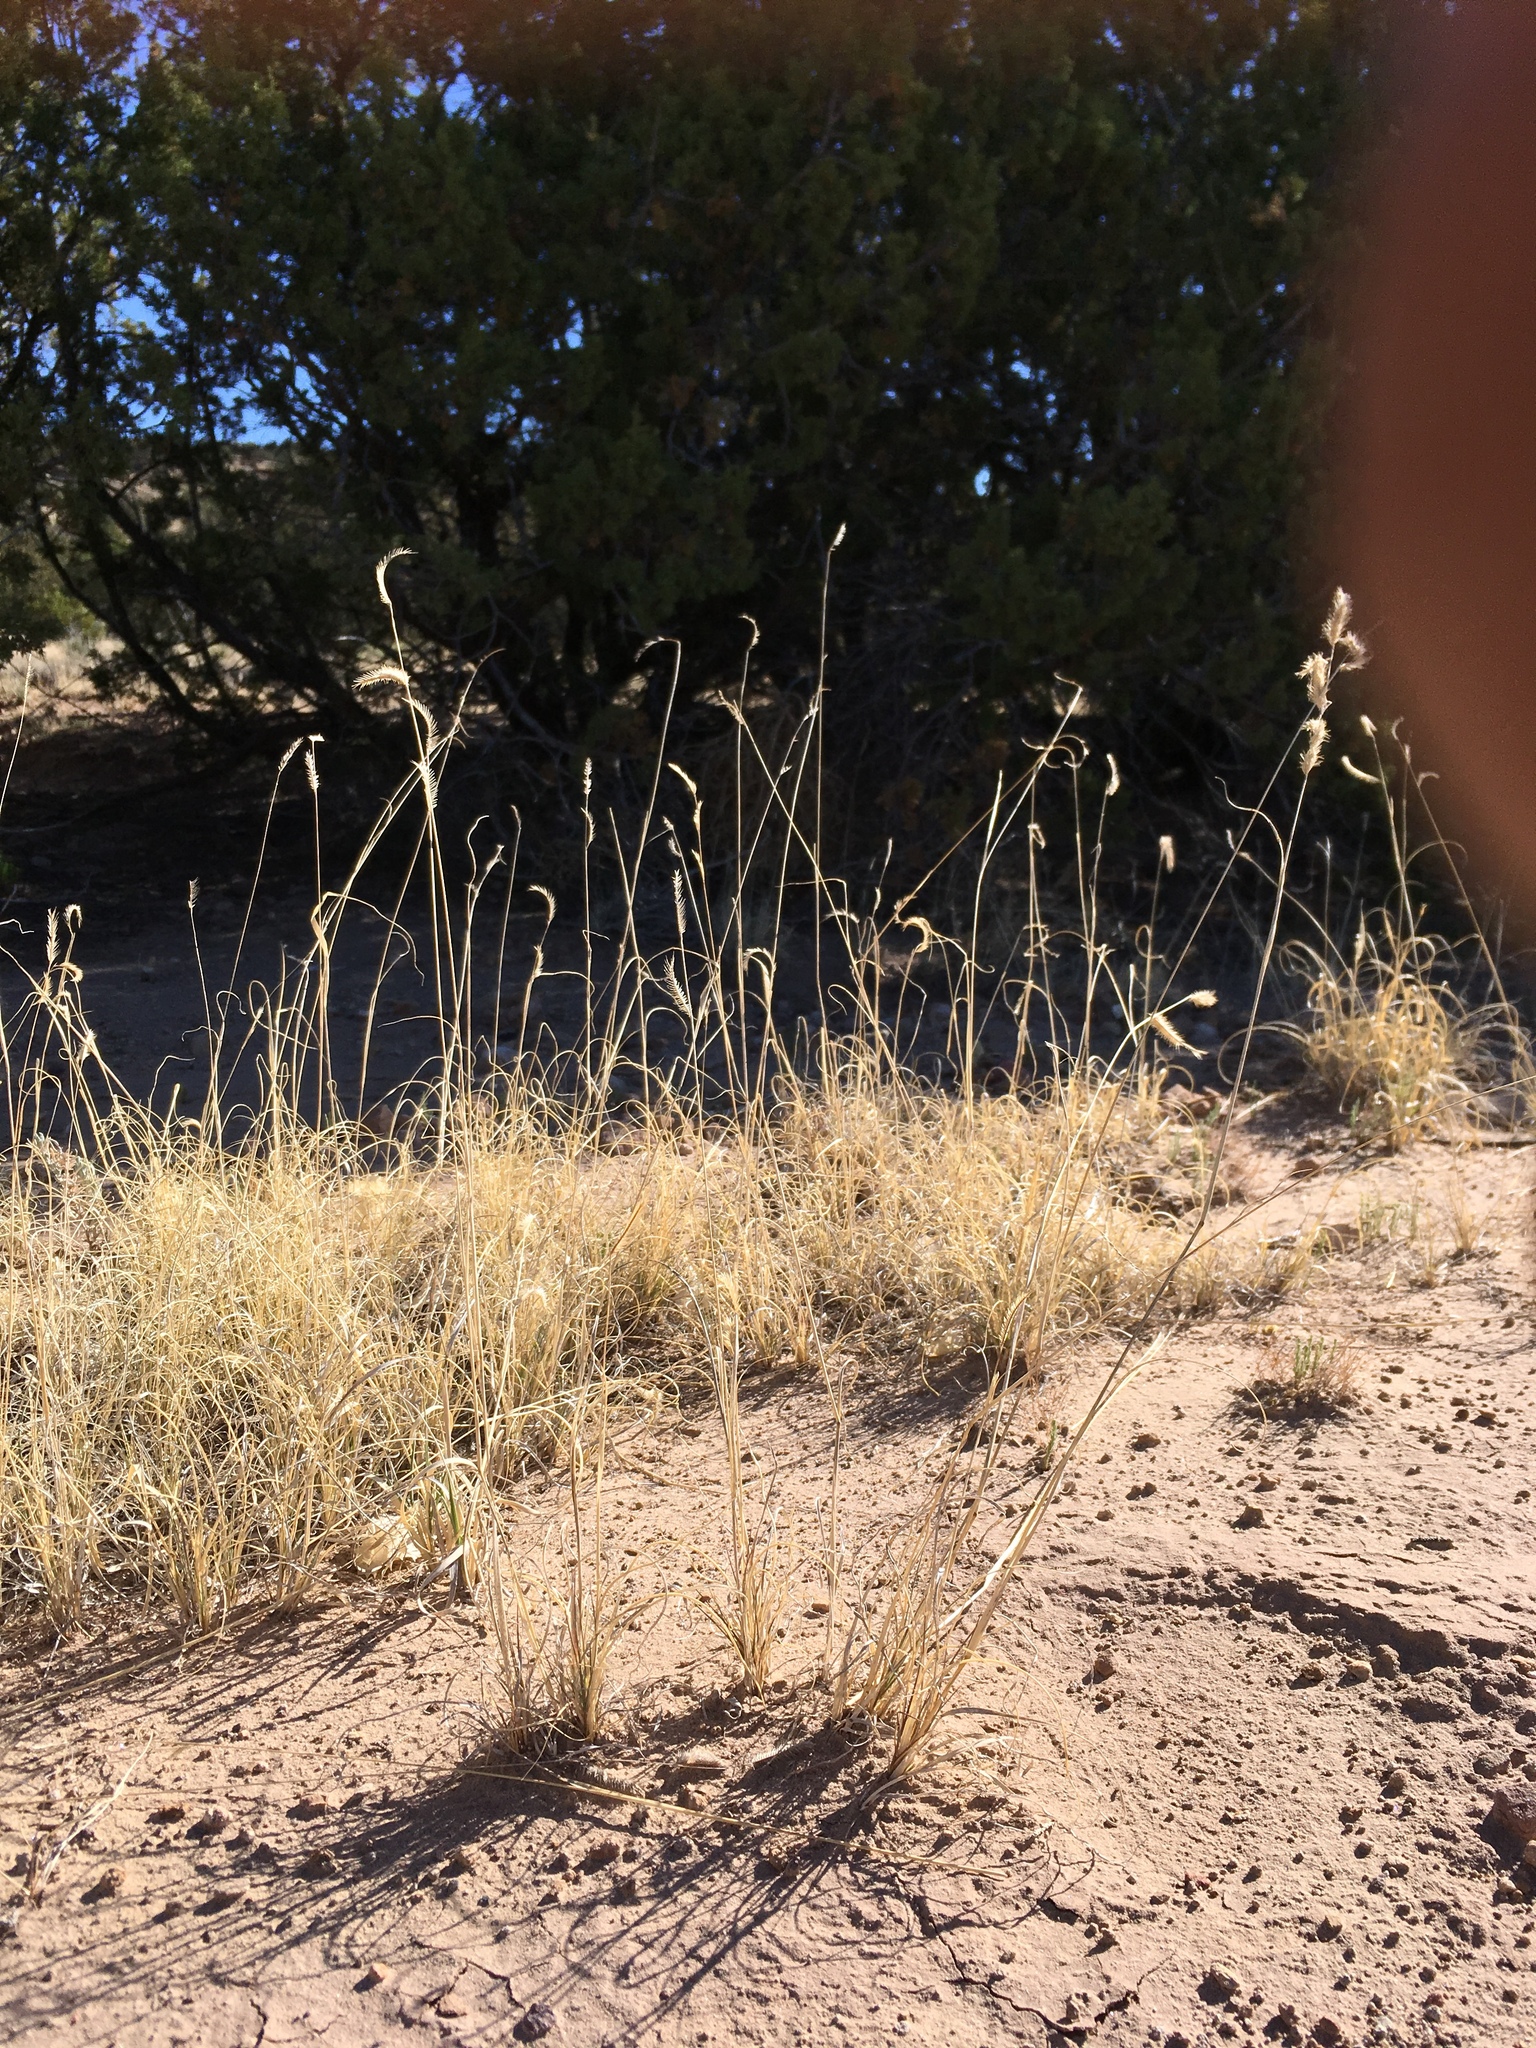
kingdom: Plantae
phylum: Tracheophyta
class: Liliopsida
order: Poales
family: Poaceae
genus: Bouteloua
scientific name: Bouteloua gracilis
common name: Blue grama
